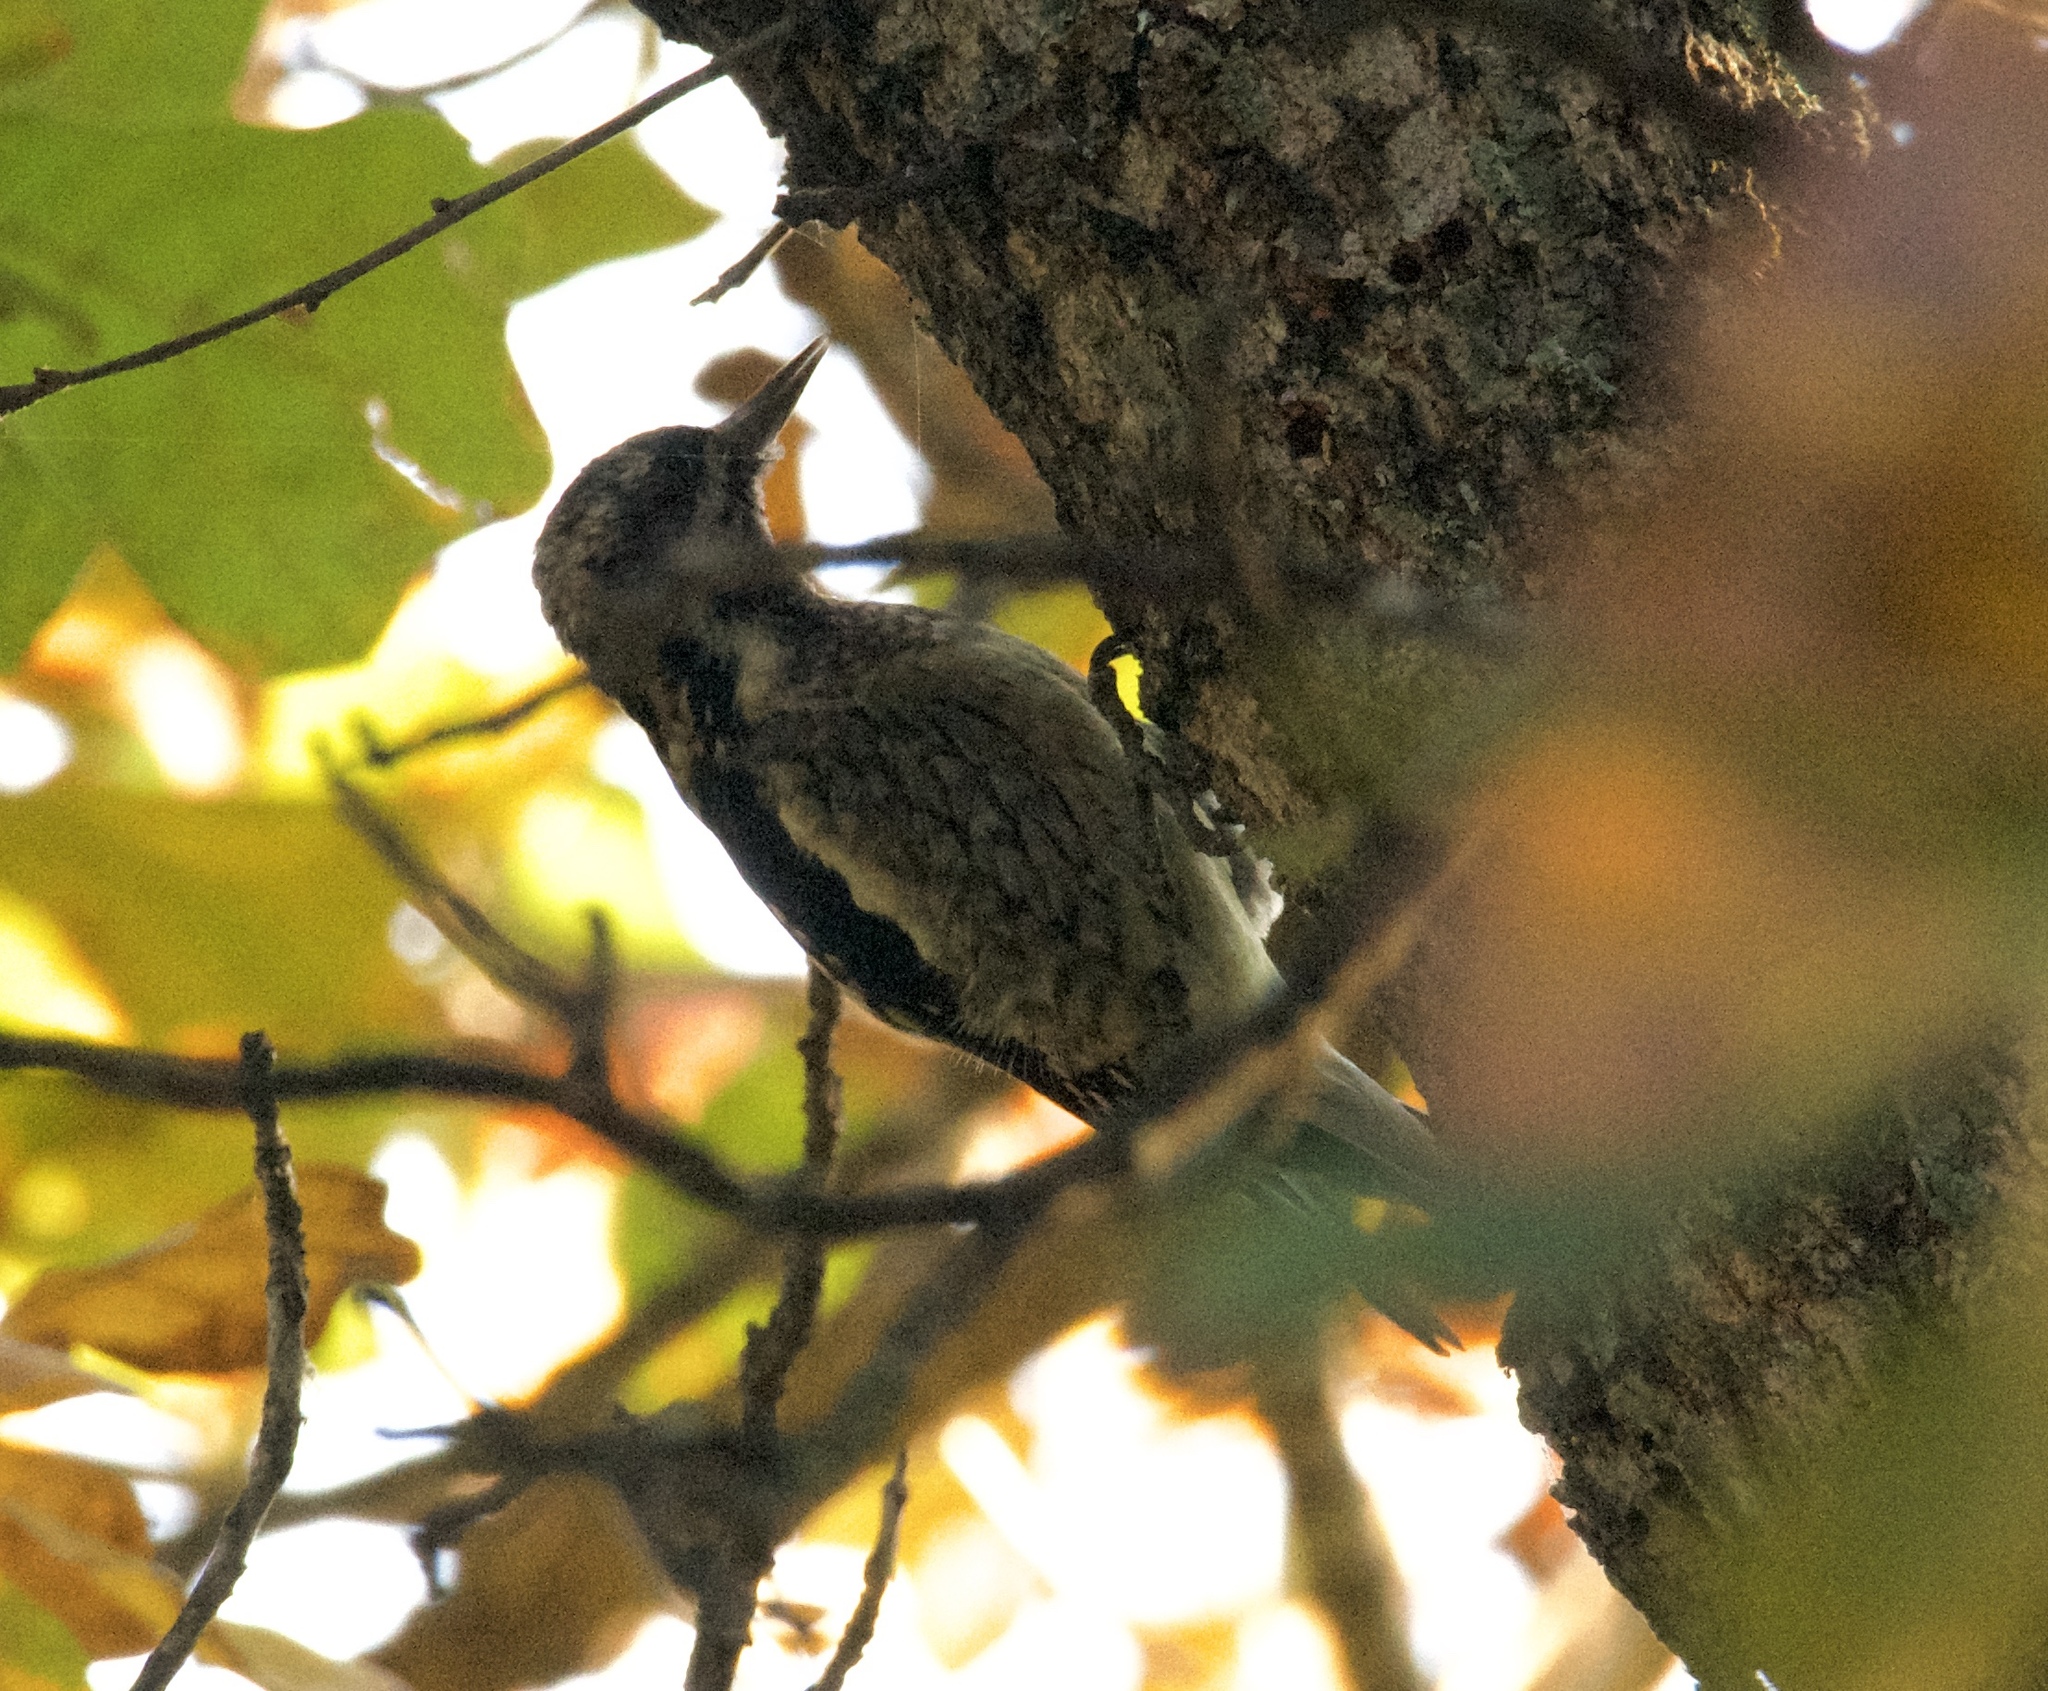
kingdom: Animalia
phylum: Chordata
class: Aves
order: Piciformes
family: Picidae
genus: Sphyrapicus
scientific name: Sphyrapicus varius
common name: Yellow-bellied sapsucker
